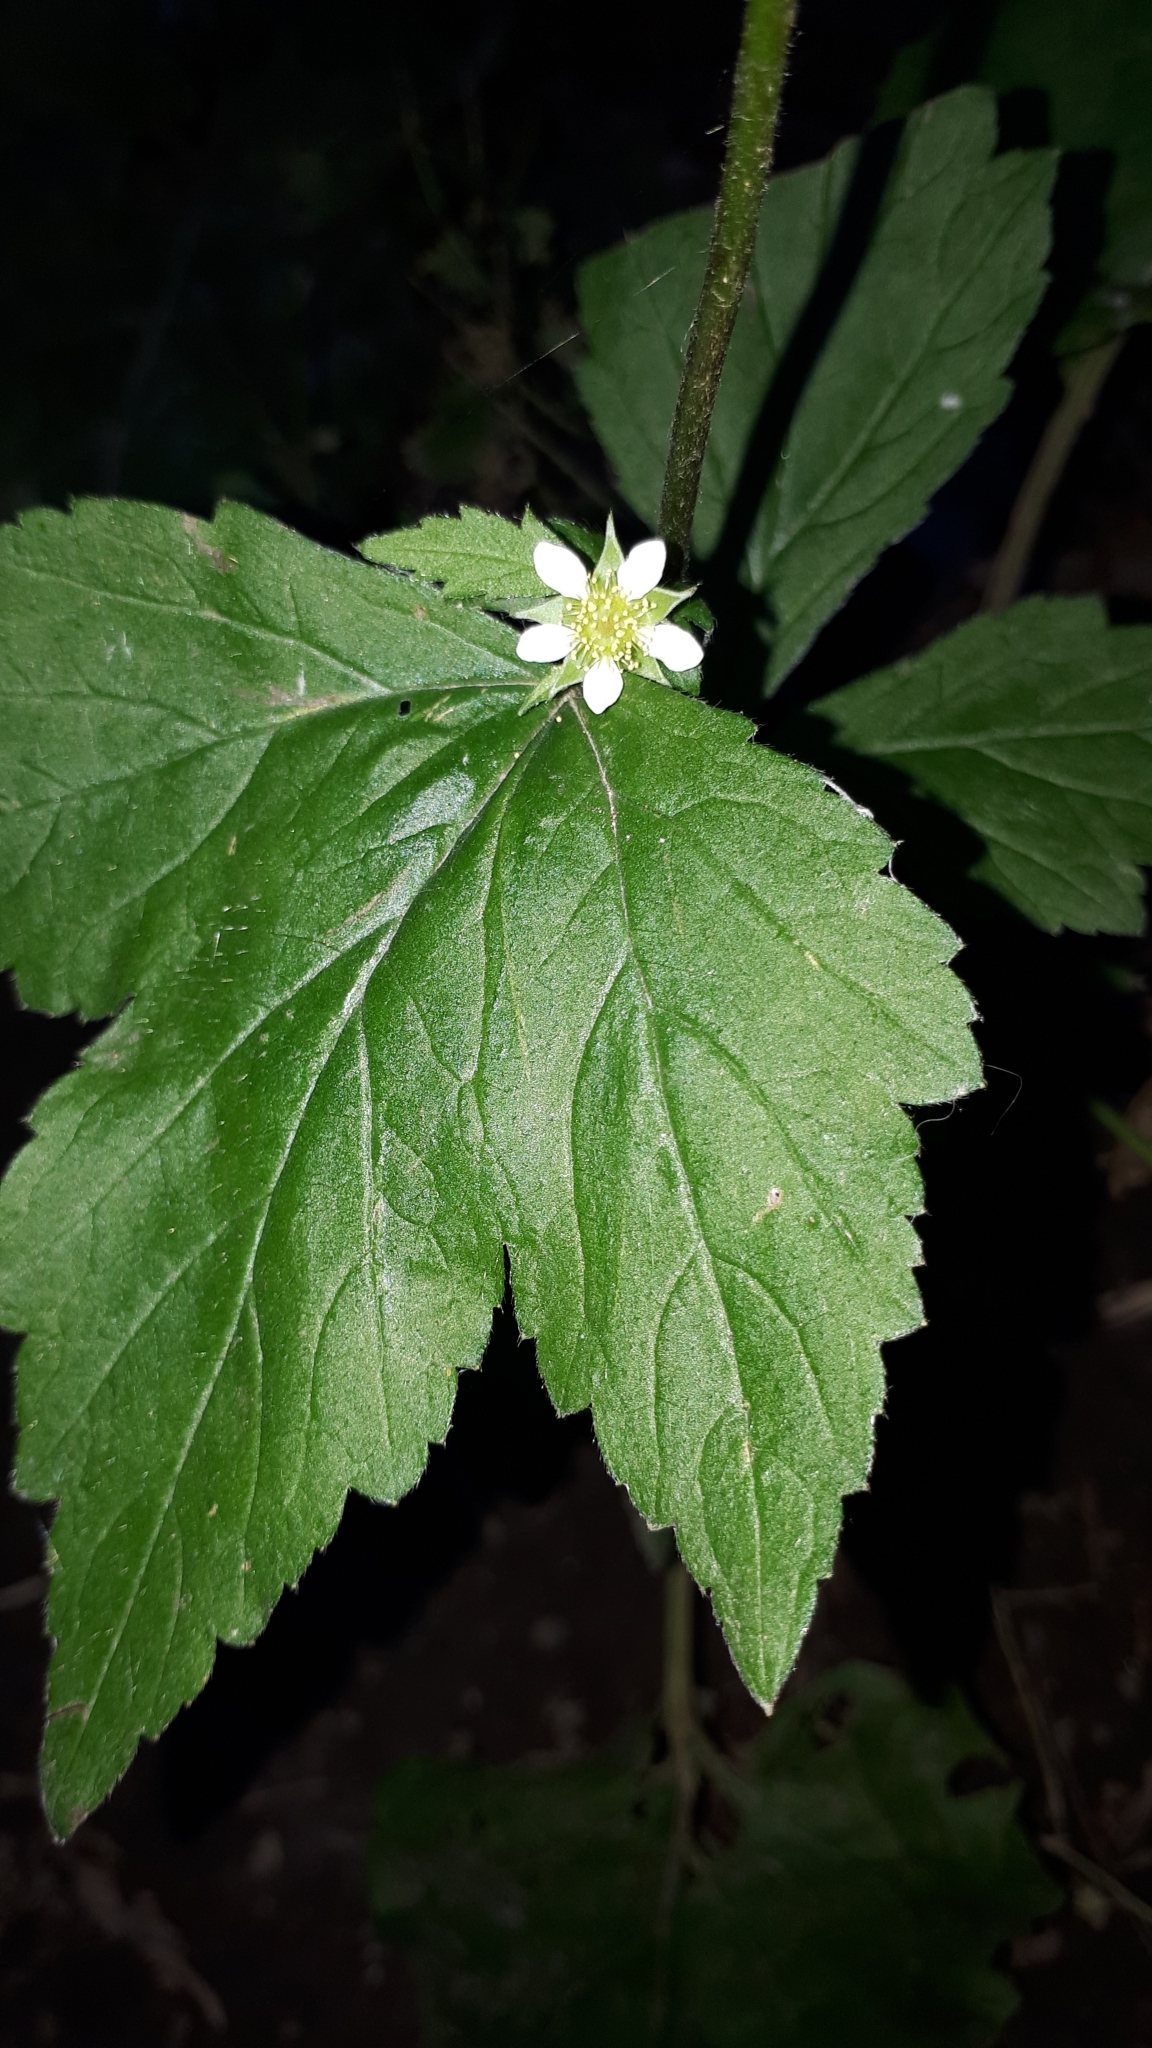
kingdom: Plantae
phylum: Tracheophyta
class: Magnoliopsida
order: Rosales
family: Rosaceae
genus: Geum
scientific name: Geum canadense
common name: White avens
